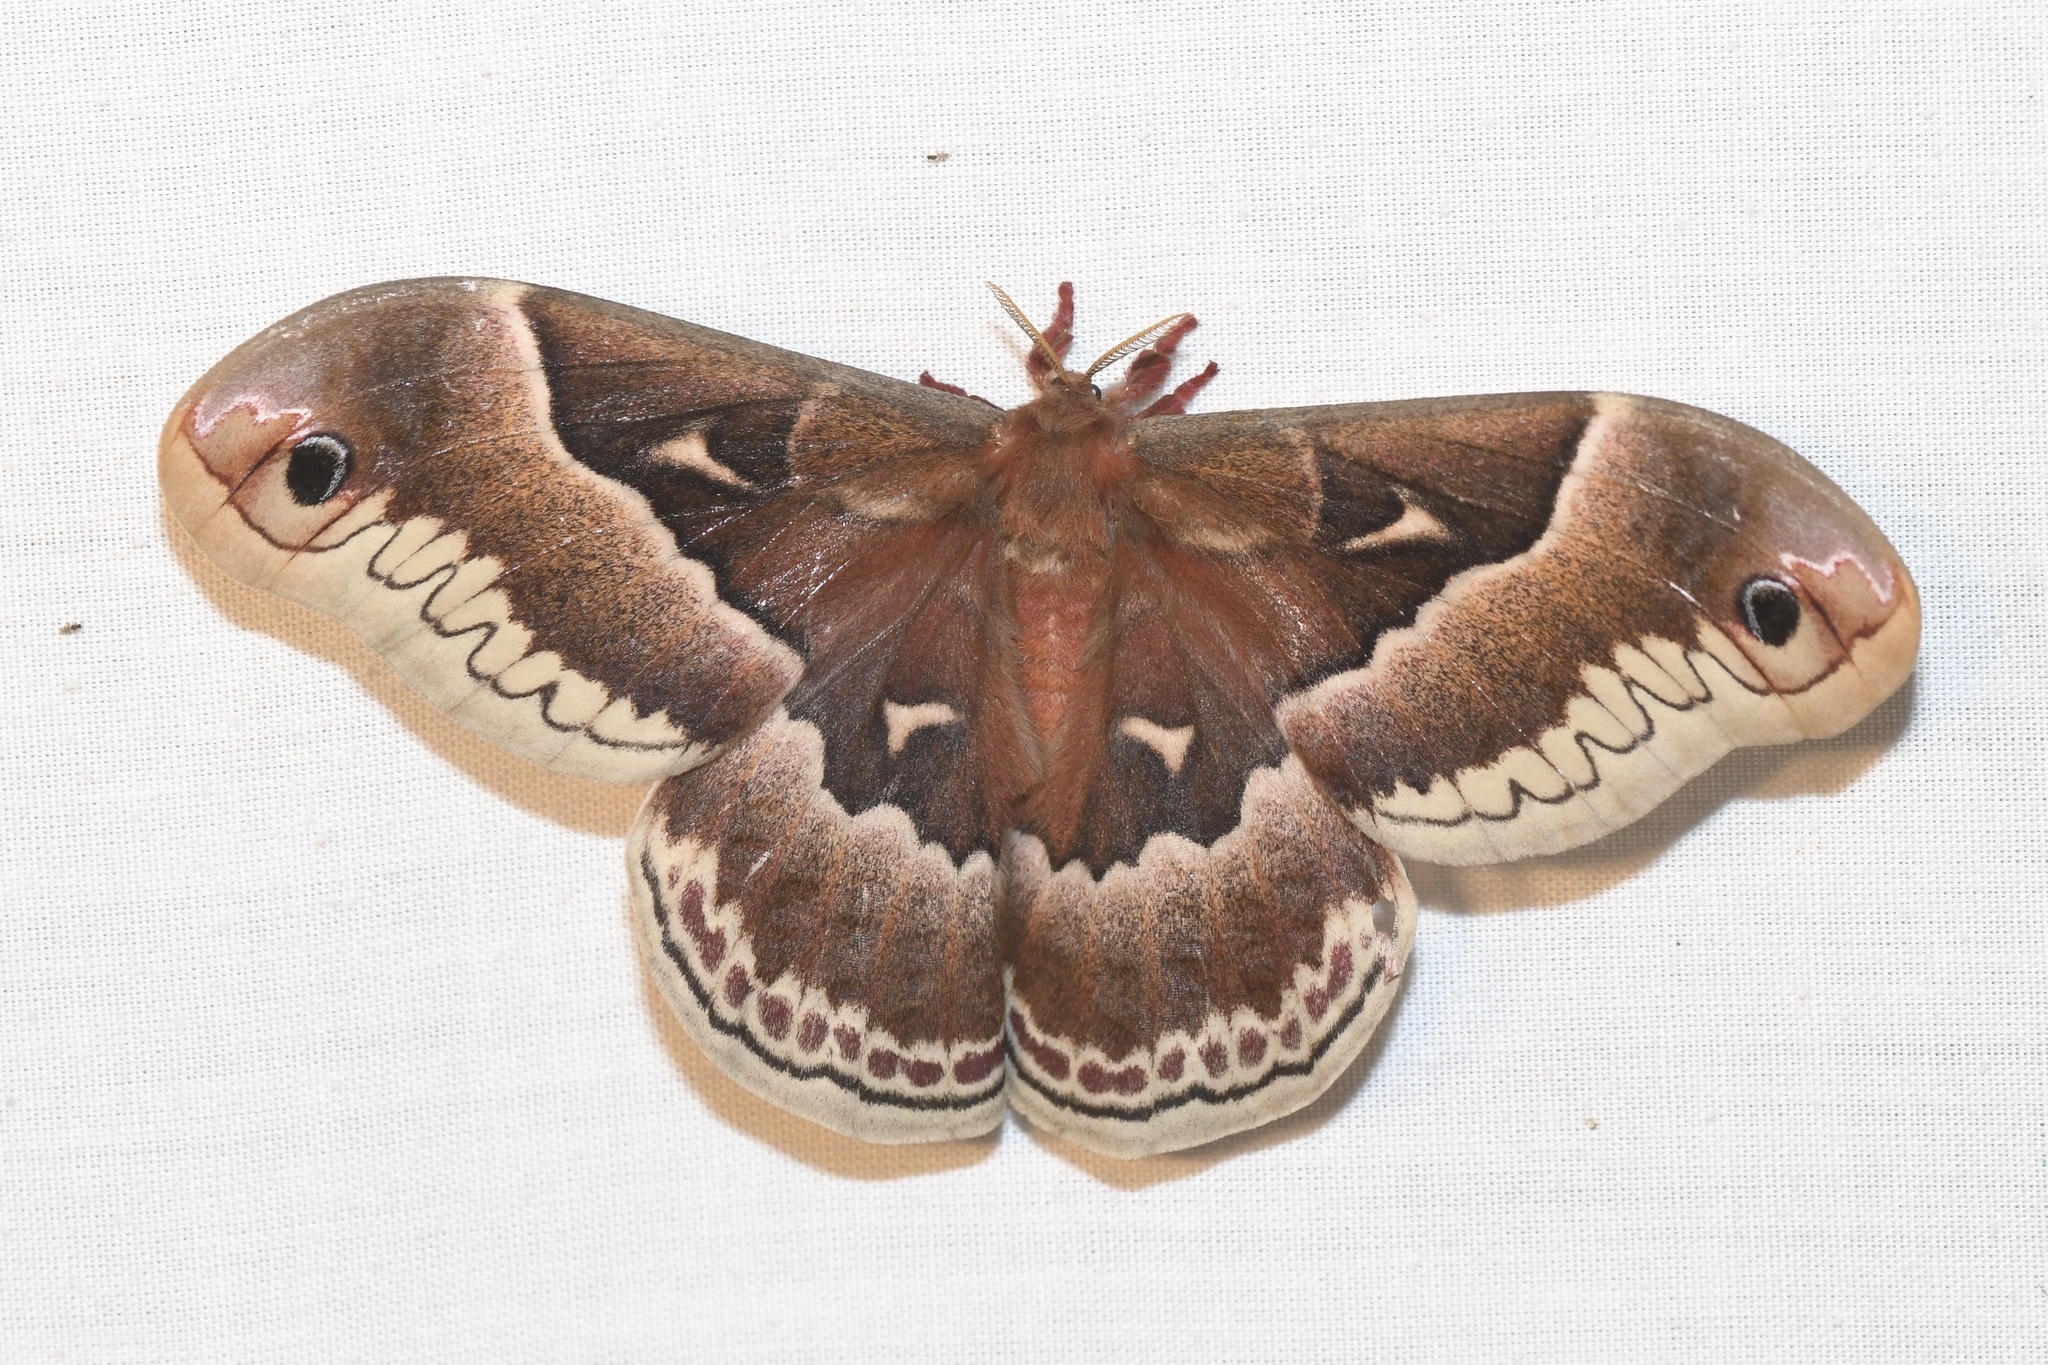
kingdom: Animalia
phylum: Arthropoda
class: Insecta
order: Lepidoptera
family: Saturniidae
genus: Callosamia
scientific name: Callosamia promethea
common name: Promethea silkmoth
